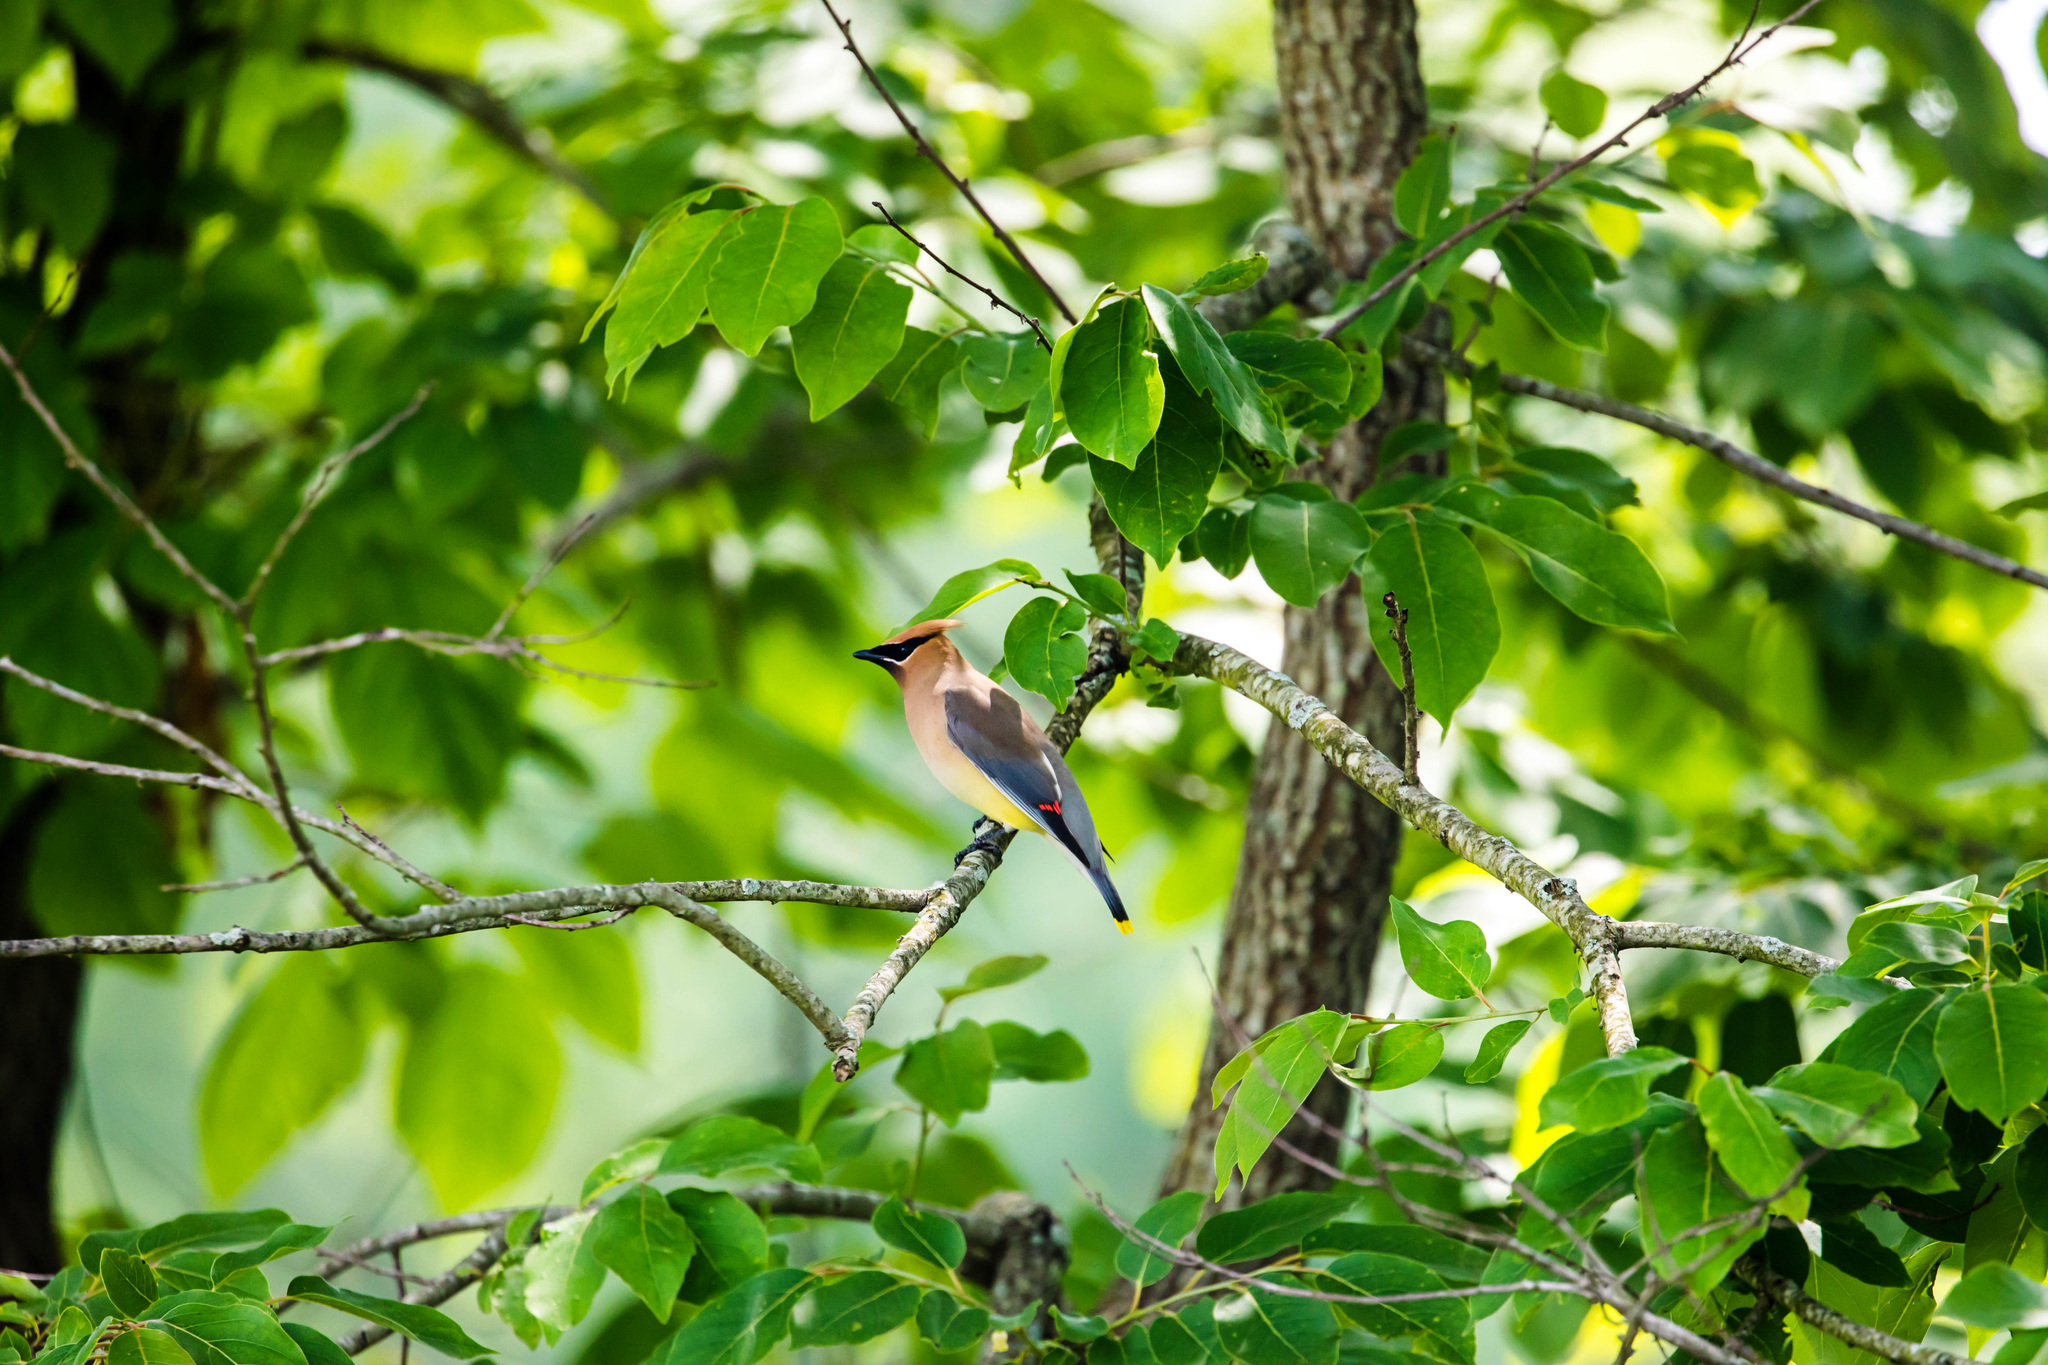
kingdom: Animalia
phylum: Chordata
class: Aves
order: Passeriformes
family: Bombycillidae
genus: Bombycilla
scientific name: Bombycilla cedrorum
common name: Cedar waxwing
